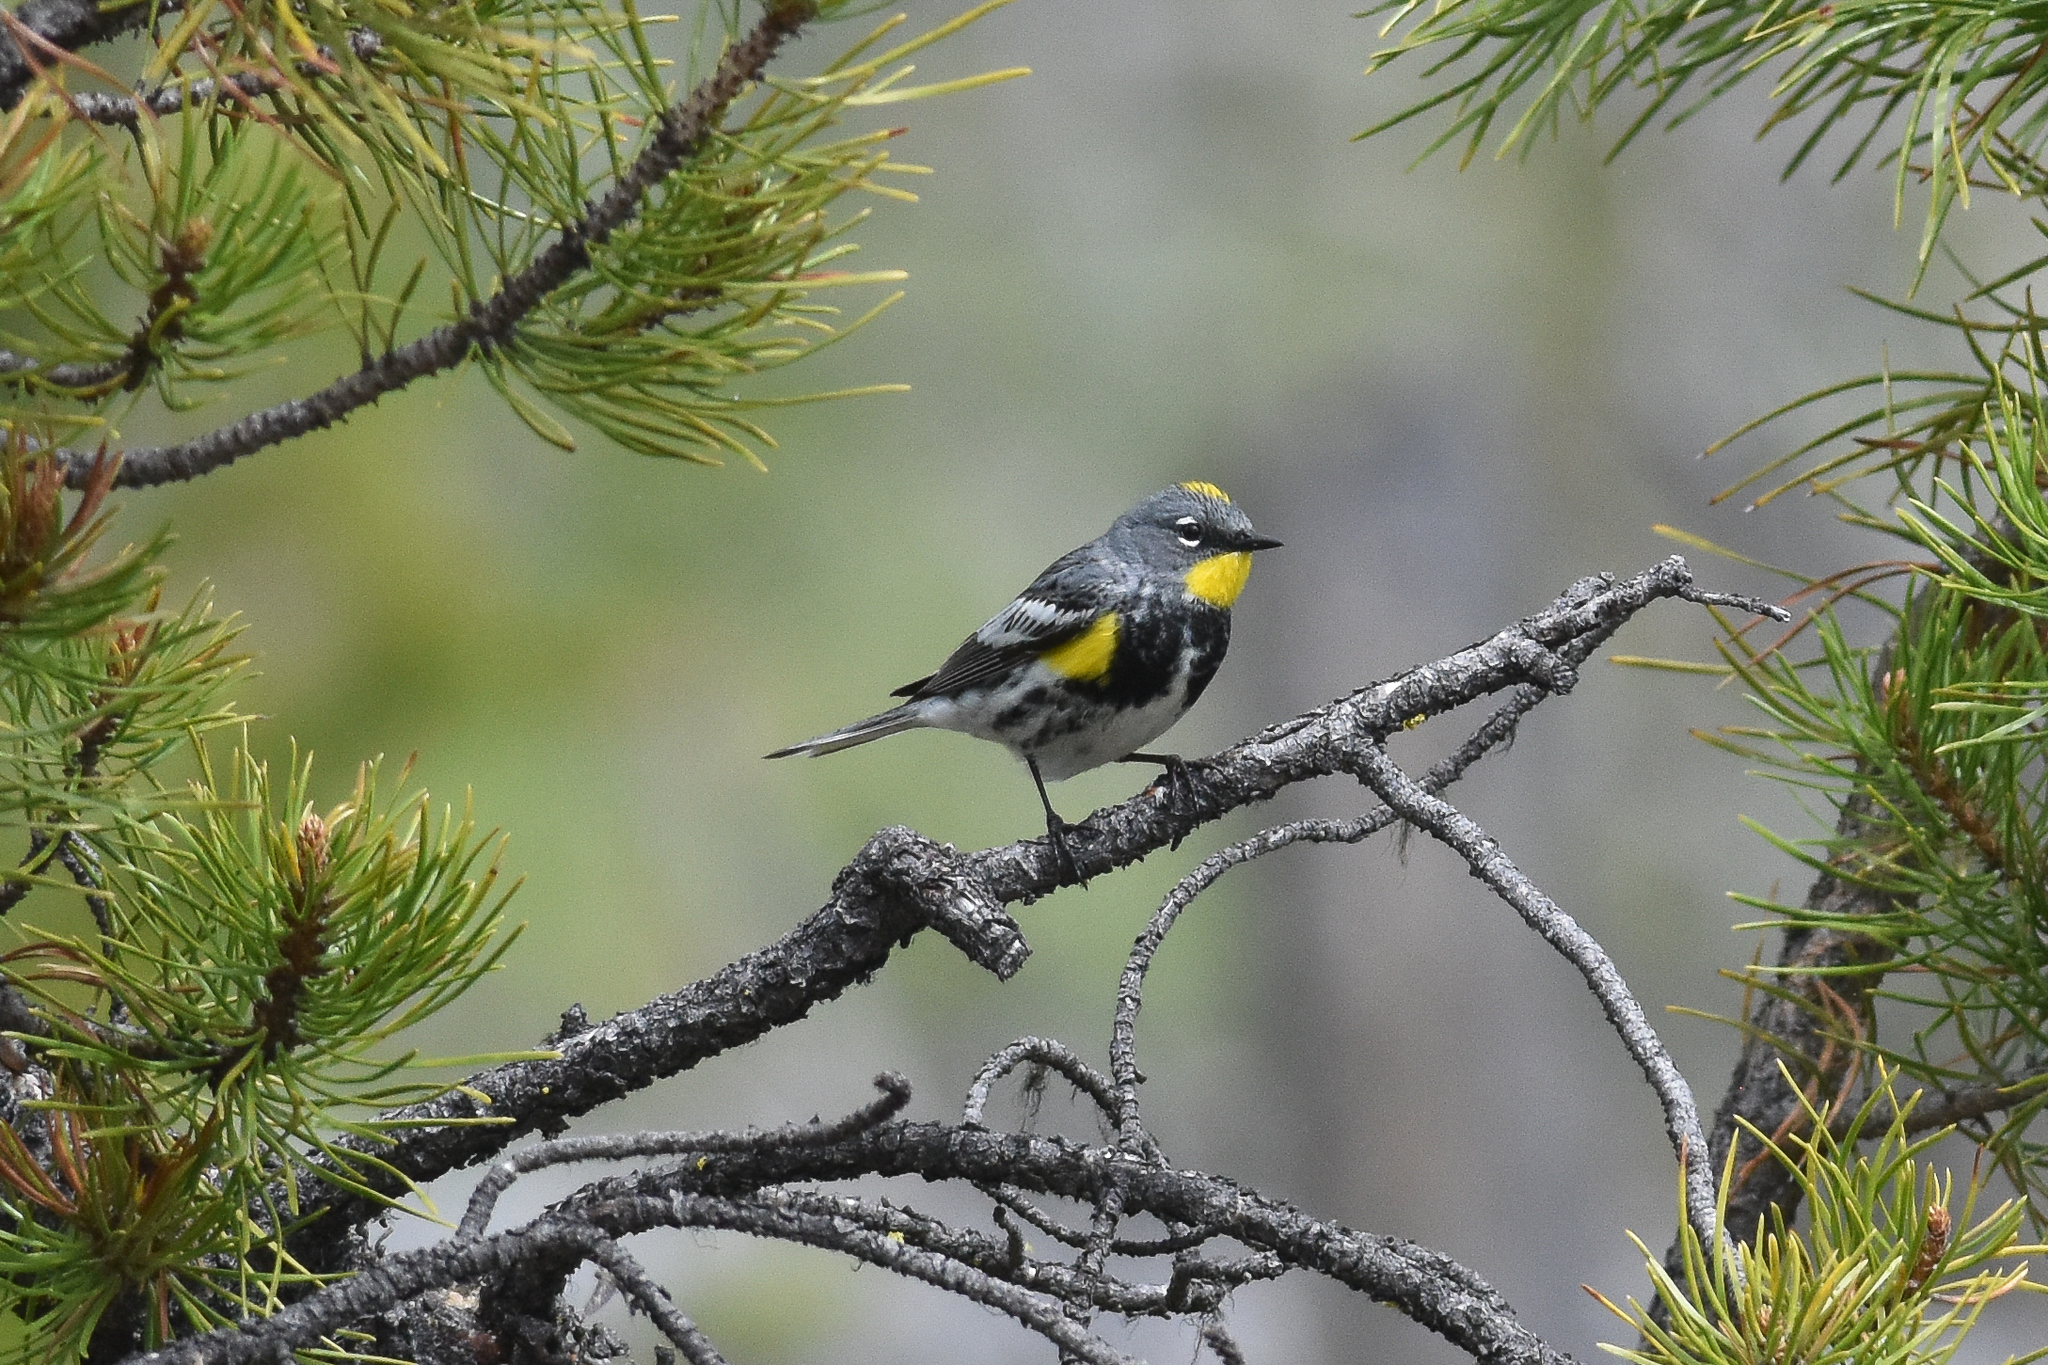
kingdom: Animalia
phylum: Chordata
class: Aves
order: Passeriformes
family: Parulidae
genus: Setophaga
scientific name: Setophaga auduboni
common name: Audubon's warbler
